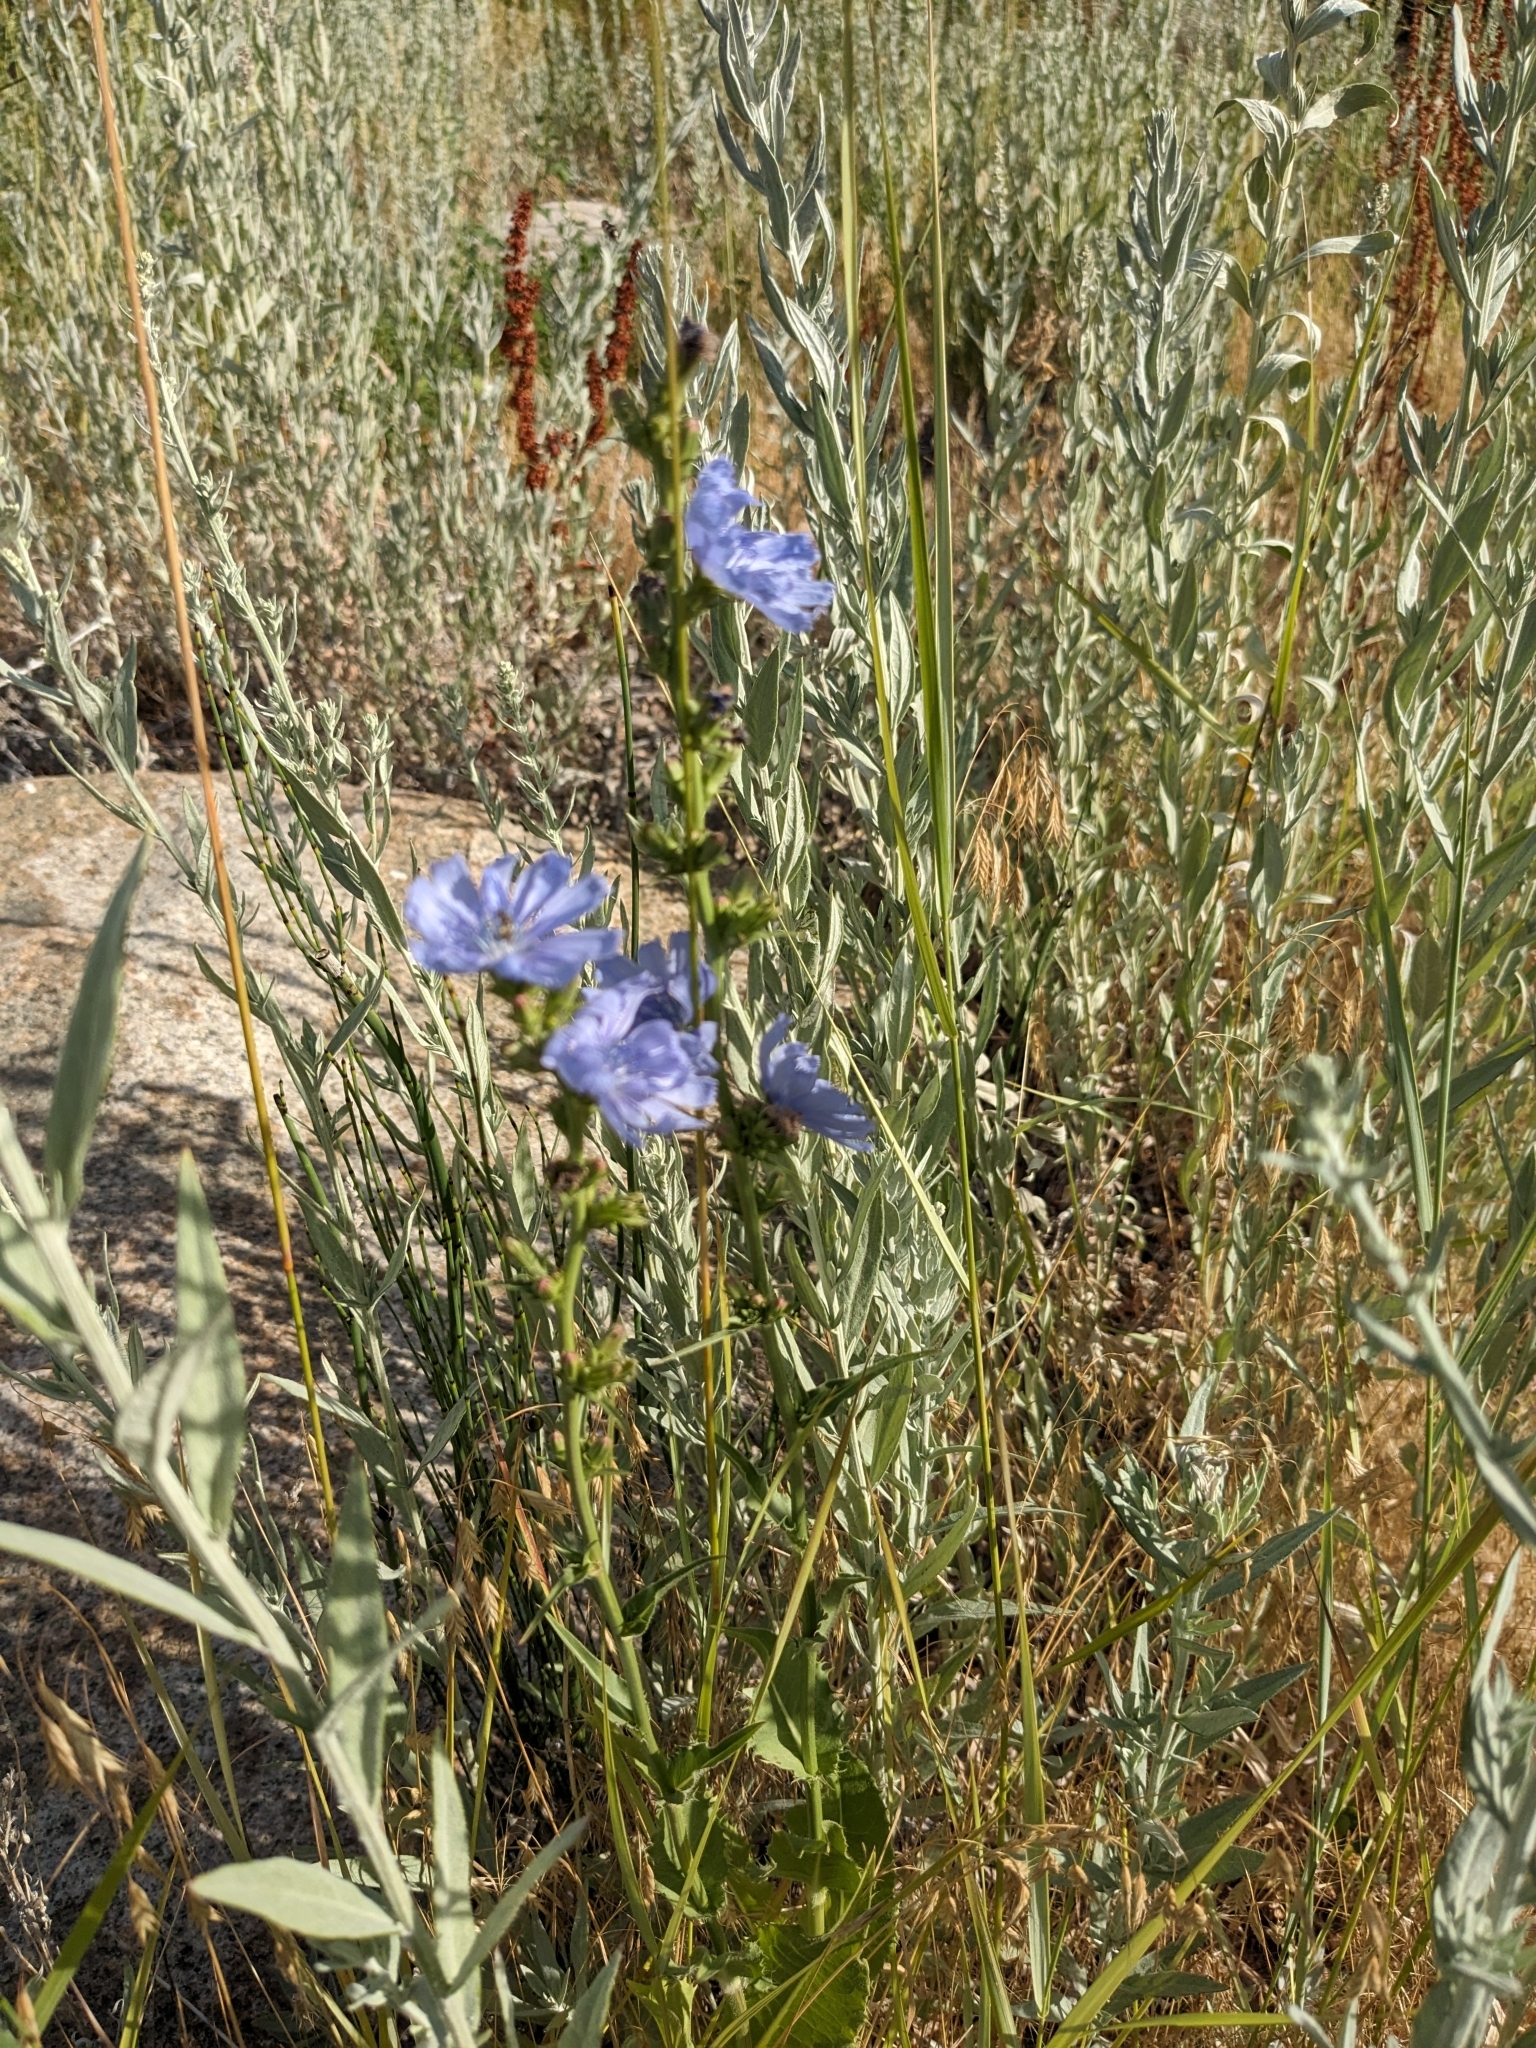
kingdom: Plantae
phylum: Tracheophyta
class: Magnoliopsida
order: Asterales
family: Asteraceae
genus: Cichorium
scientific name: Cichorium intybus
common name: Chicory
